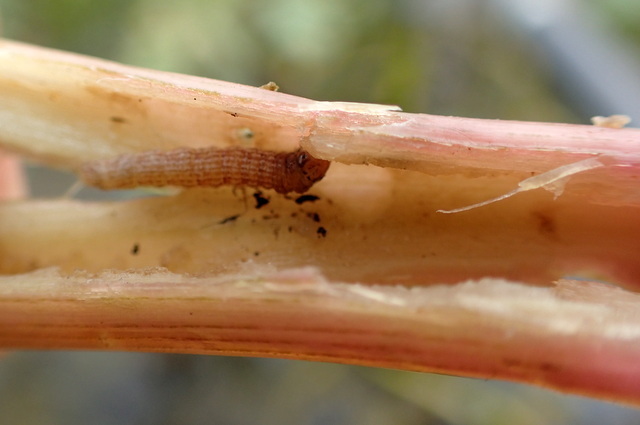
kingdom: Animalia
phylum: Arthropoda
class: Insecta
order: Lepidoptera
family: Pyralidae
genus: Macrorrhinia
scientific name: Macrorrhinia endonephele
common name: Alligator weed stemborer moth
